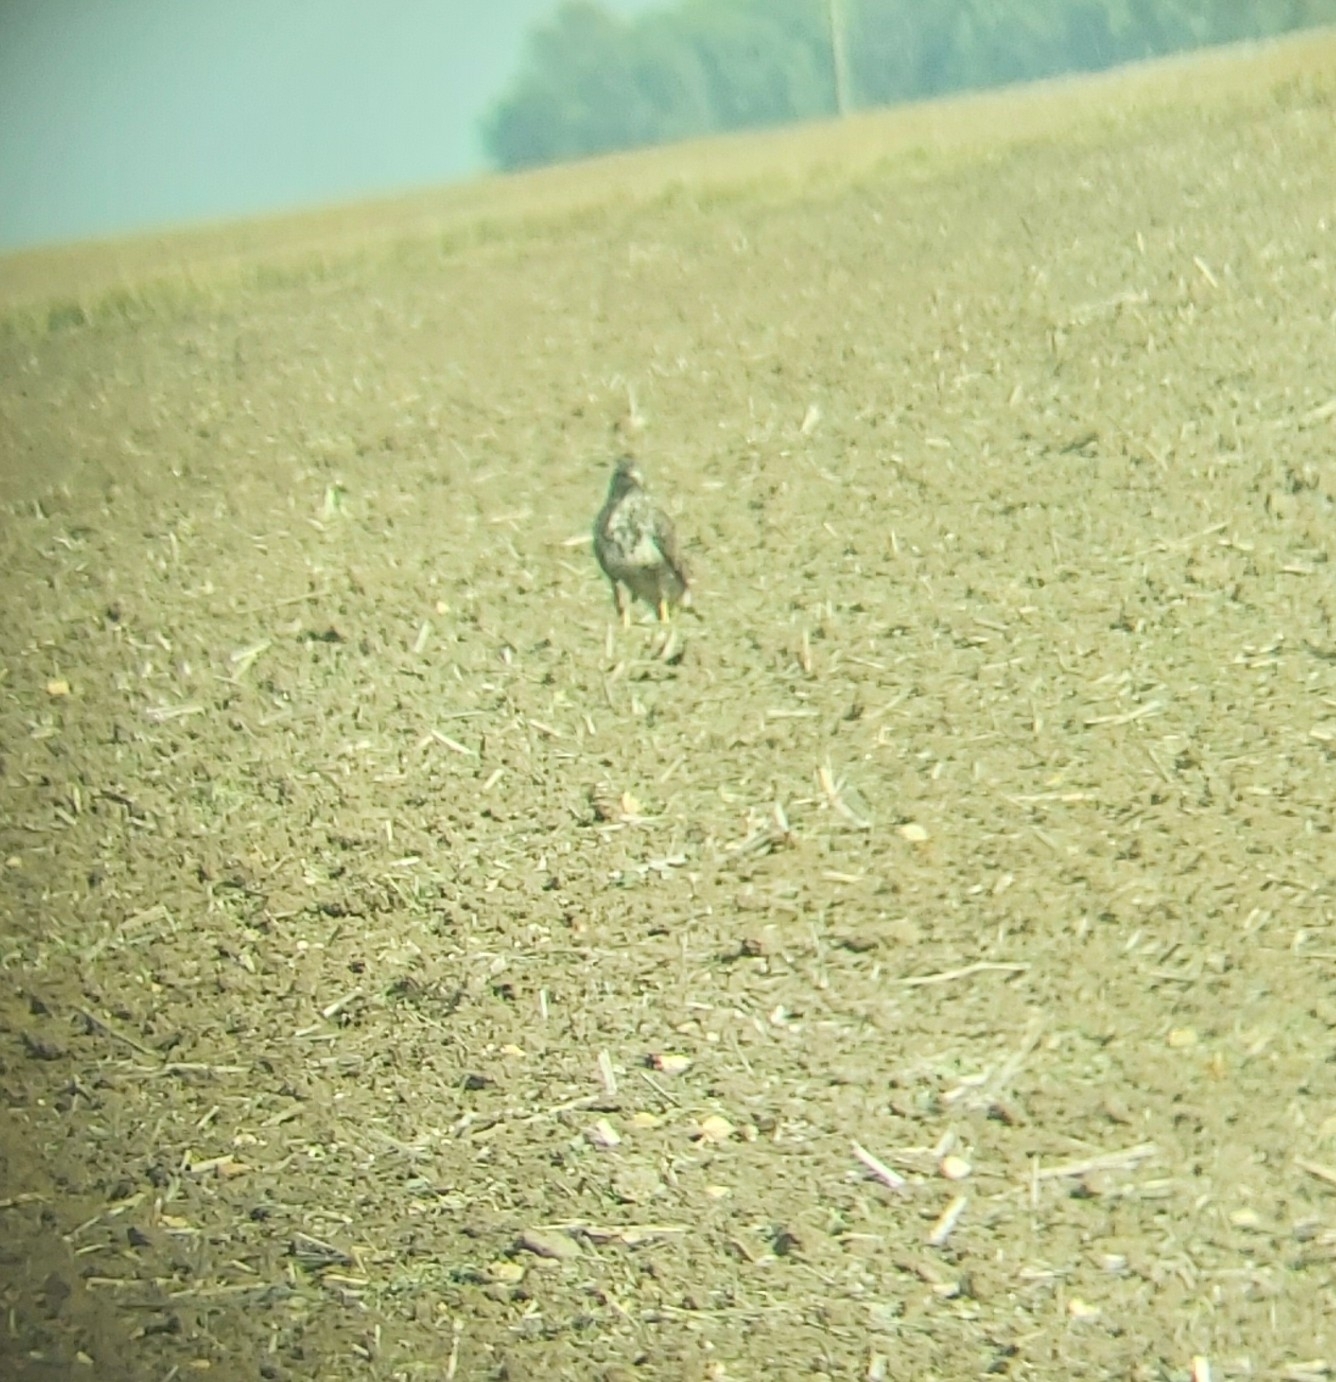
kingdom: Animalia
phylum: Chordata
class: Aves
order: Accipitriformes
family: Accipitridae
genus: Buteo
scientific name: Buteo buteo
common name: Common buzzard
